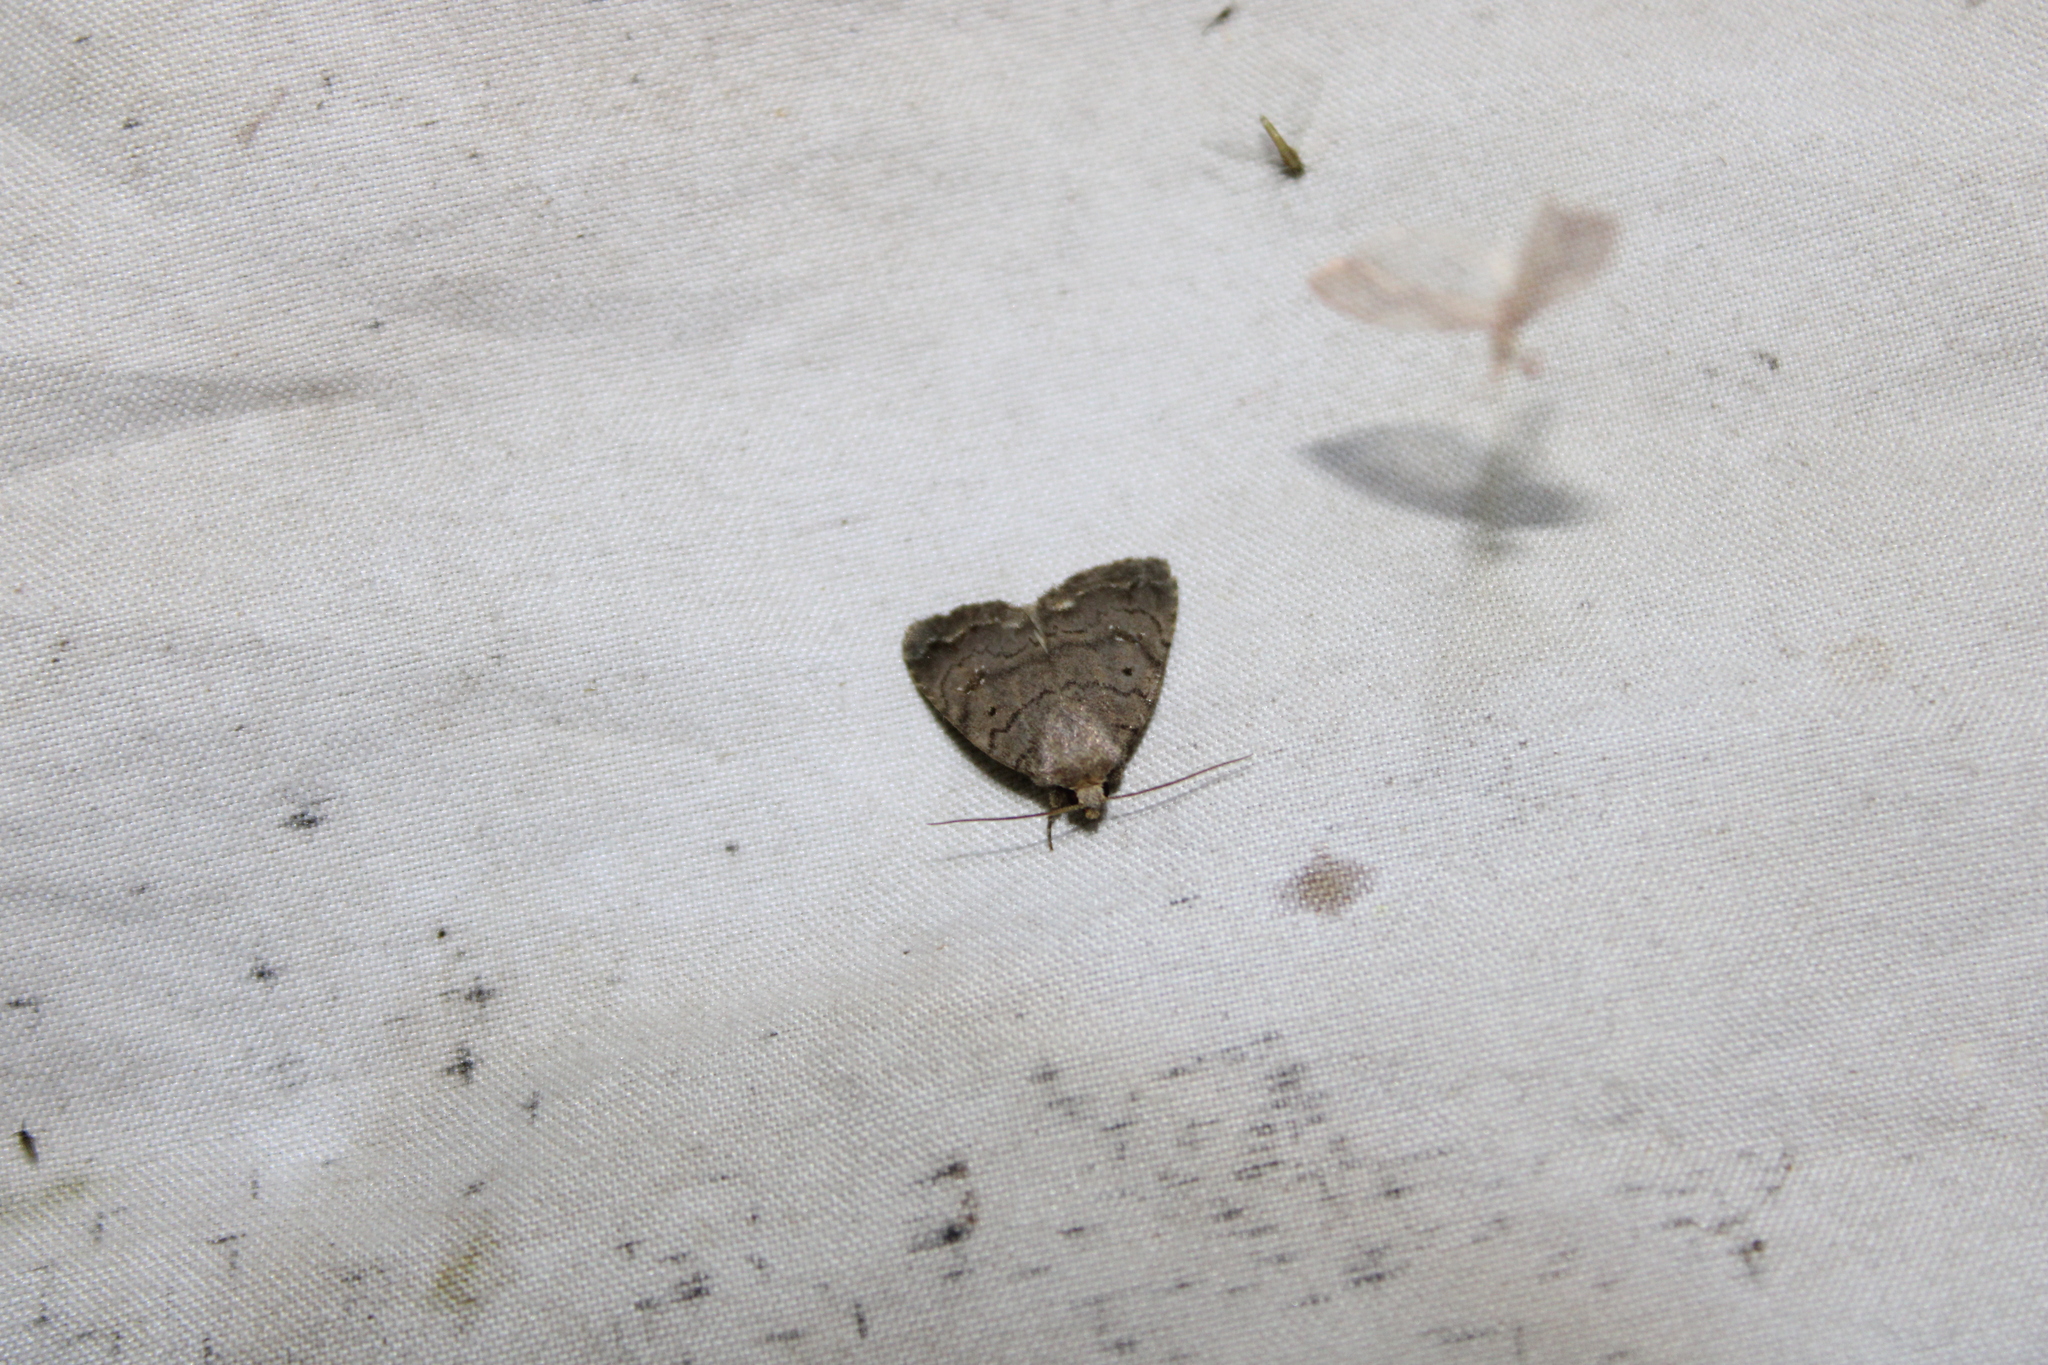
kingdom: Animalia
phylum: Arthropoda
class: Insecta
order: Lepidoptera
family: Noctuidae
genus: Athetis
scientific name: Athetis tarda
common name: Slowpoke moth
